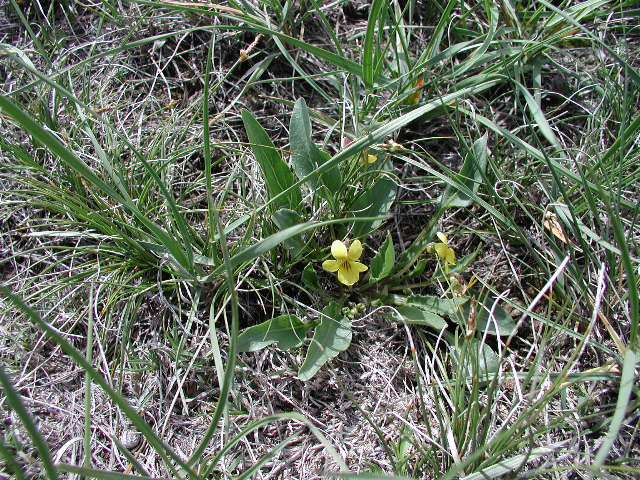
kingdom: Plantae
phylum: Tracheophyta
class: Magnoliopsida
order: Malpighiales
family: Violaceae
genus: Viola
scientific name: Viola nuttallii
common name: Yellow prairie violet
